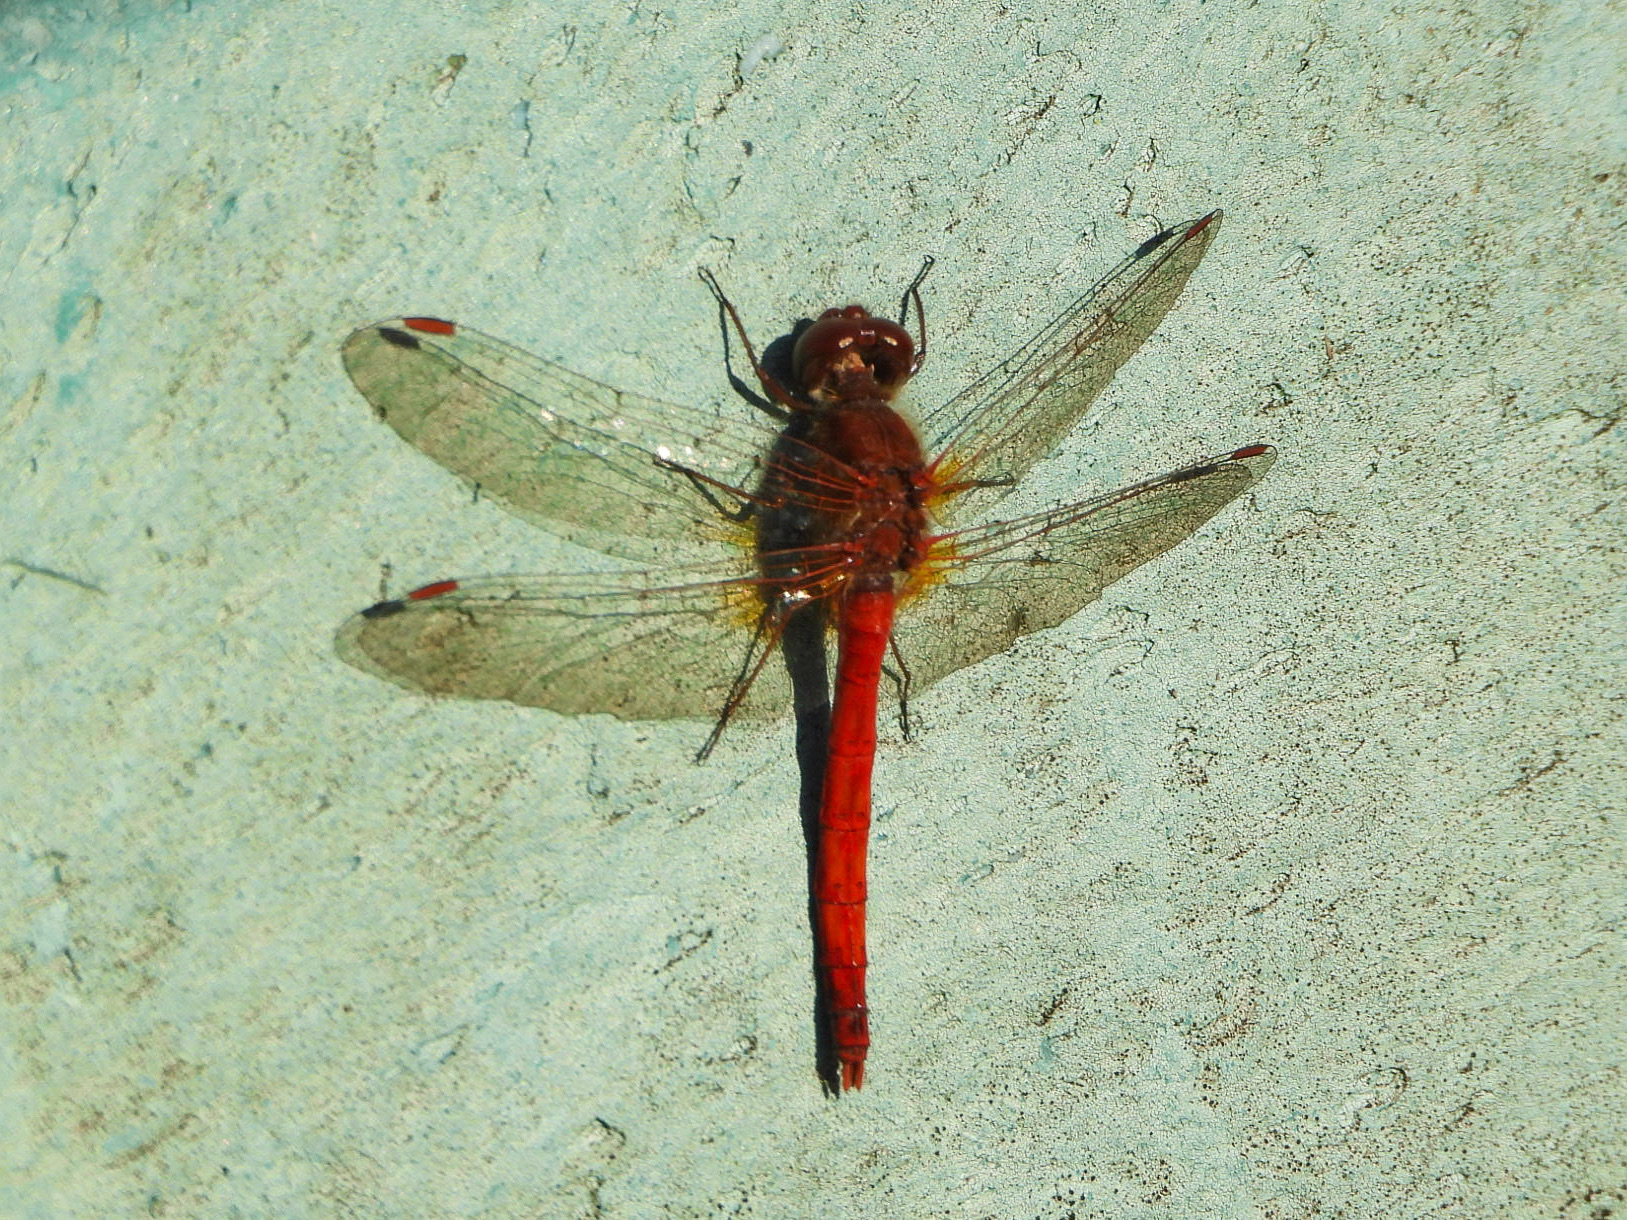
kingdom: Animalia
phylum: Arthropoda
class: Insecta
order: Odonata
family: Libellulidae
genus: Sympetrum
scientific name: Sympetrum vicinum
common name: Autumn meadowhawk
